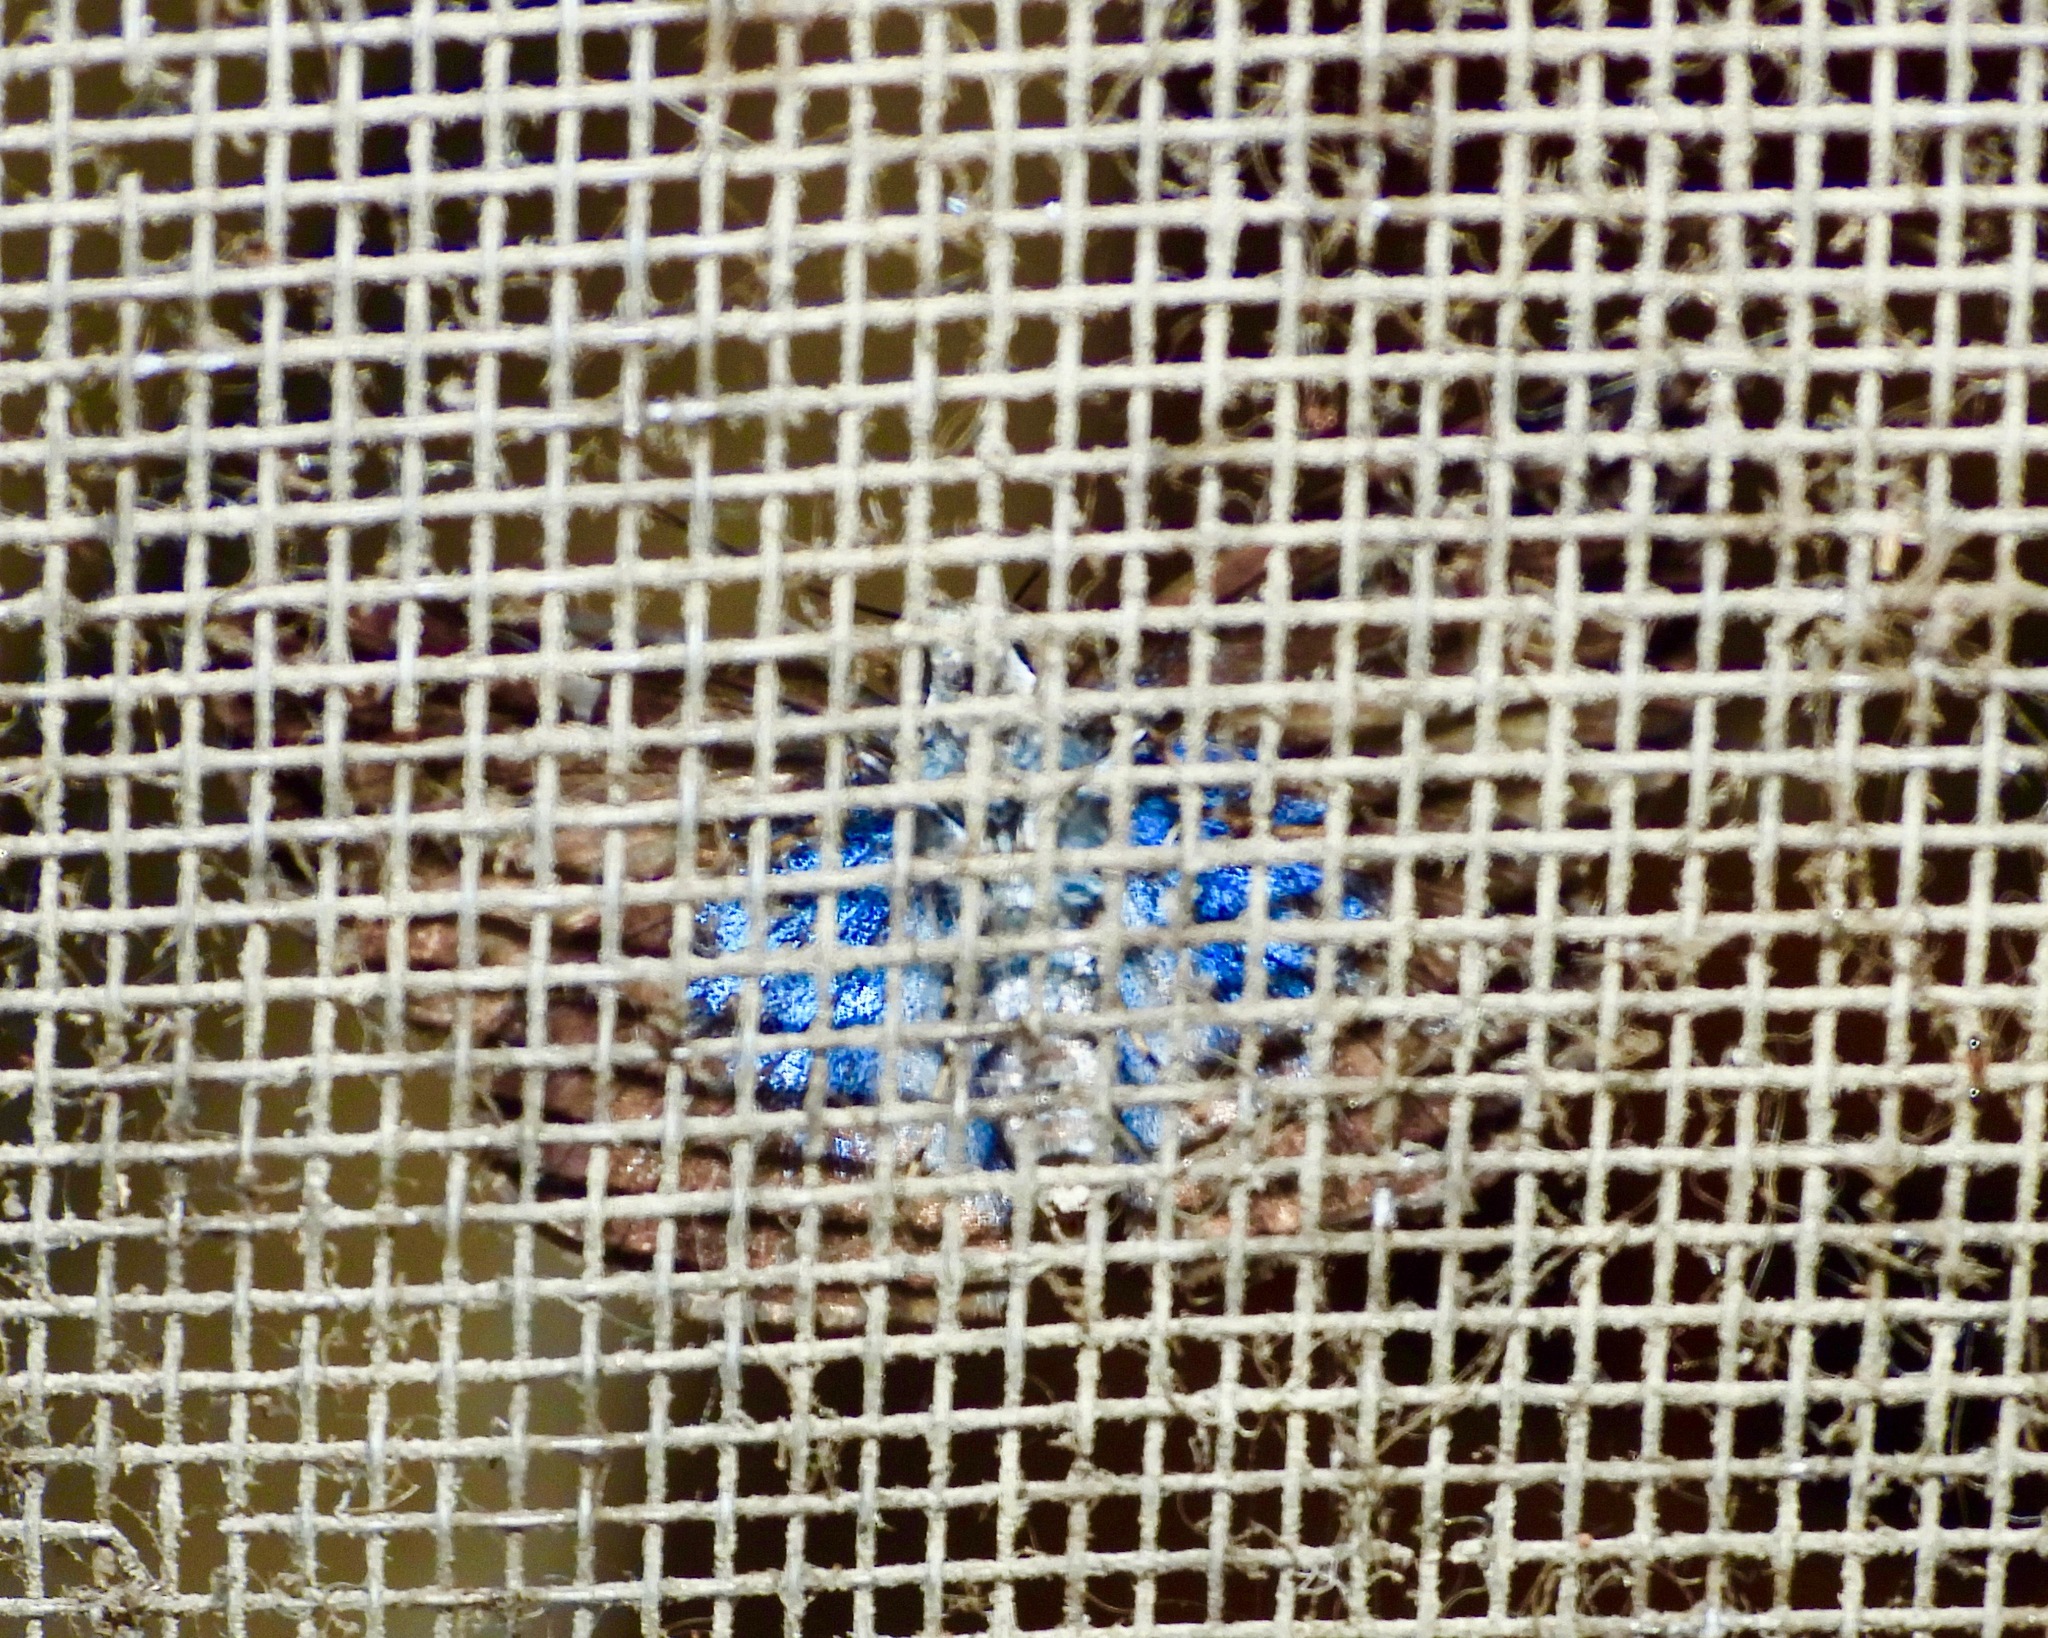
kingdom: Animalia
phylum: Arthropoda
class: Insecta
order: Lepidoptera
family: Hesperiidae
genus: Quadrus
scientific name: Quadrus cerialis
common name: Common blue-skipper
